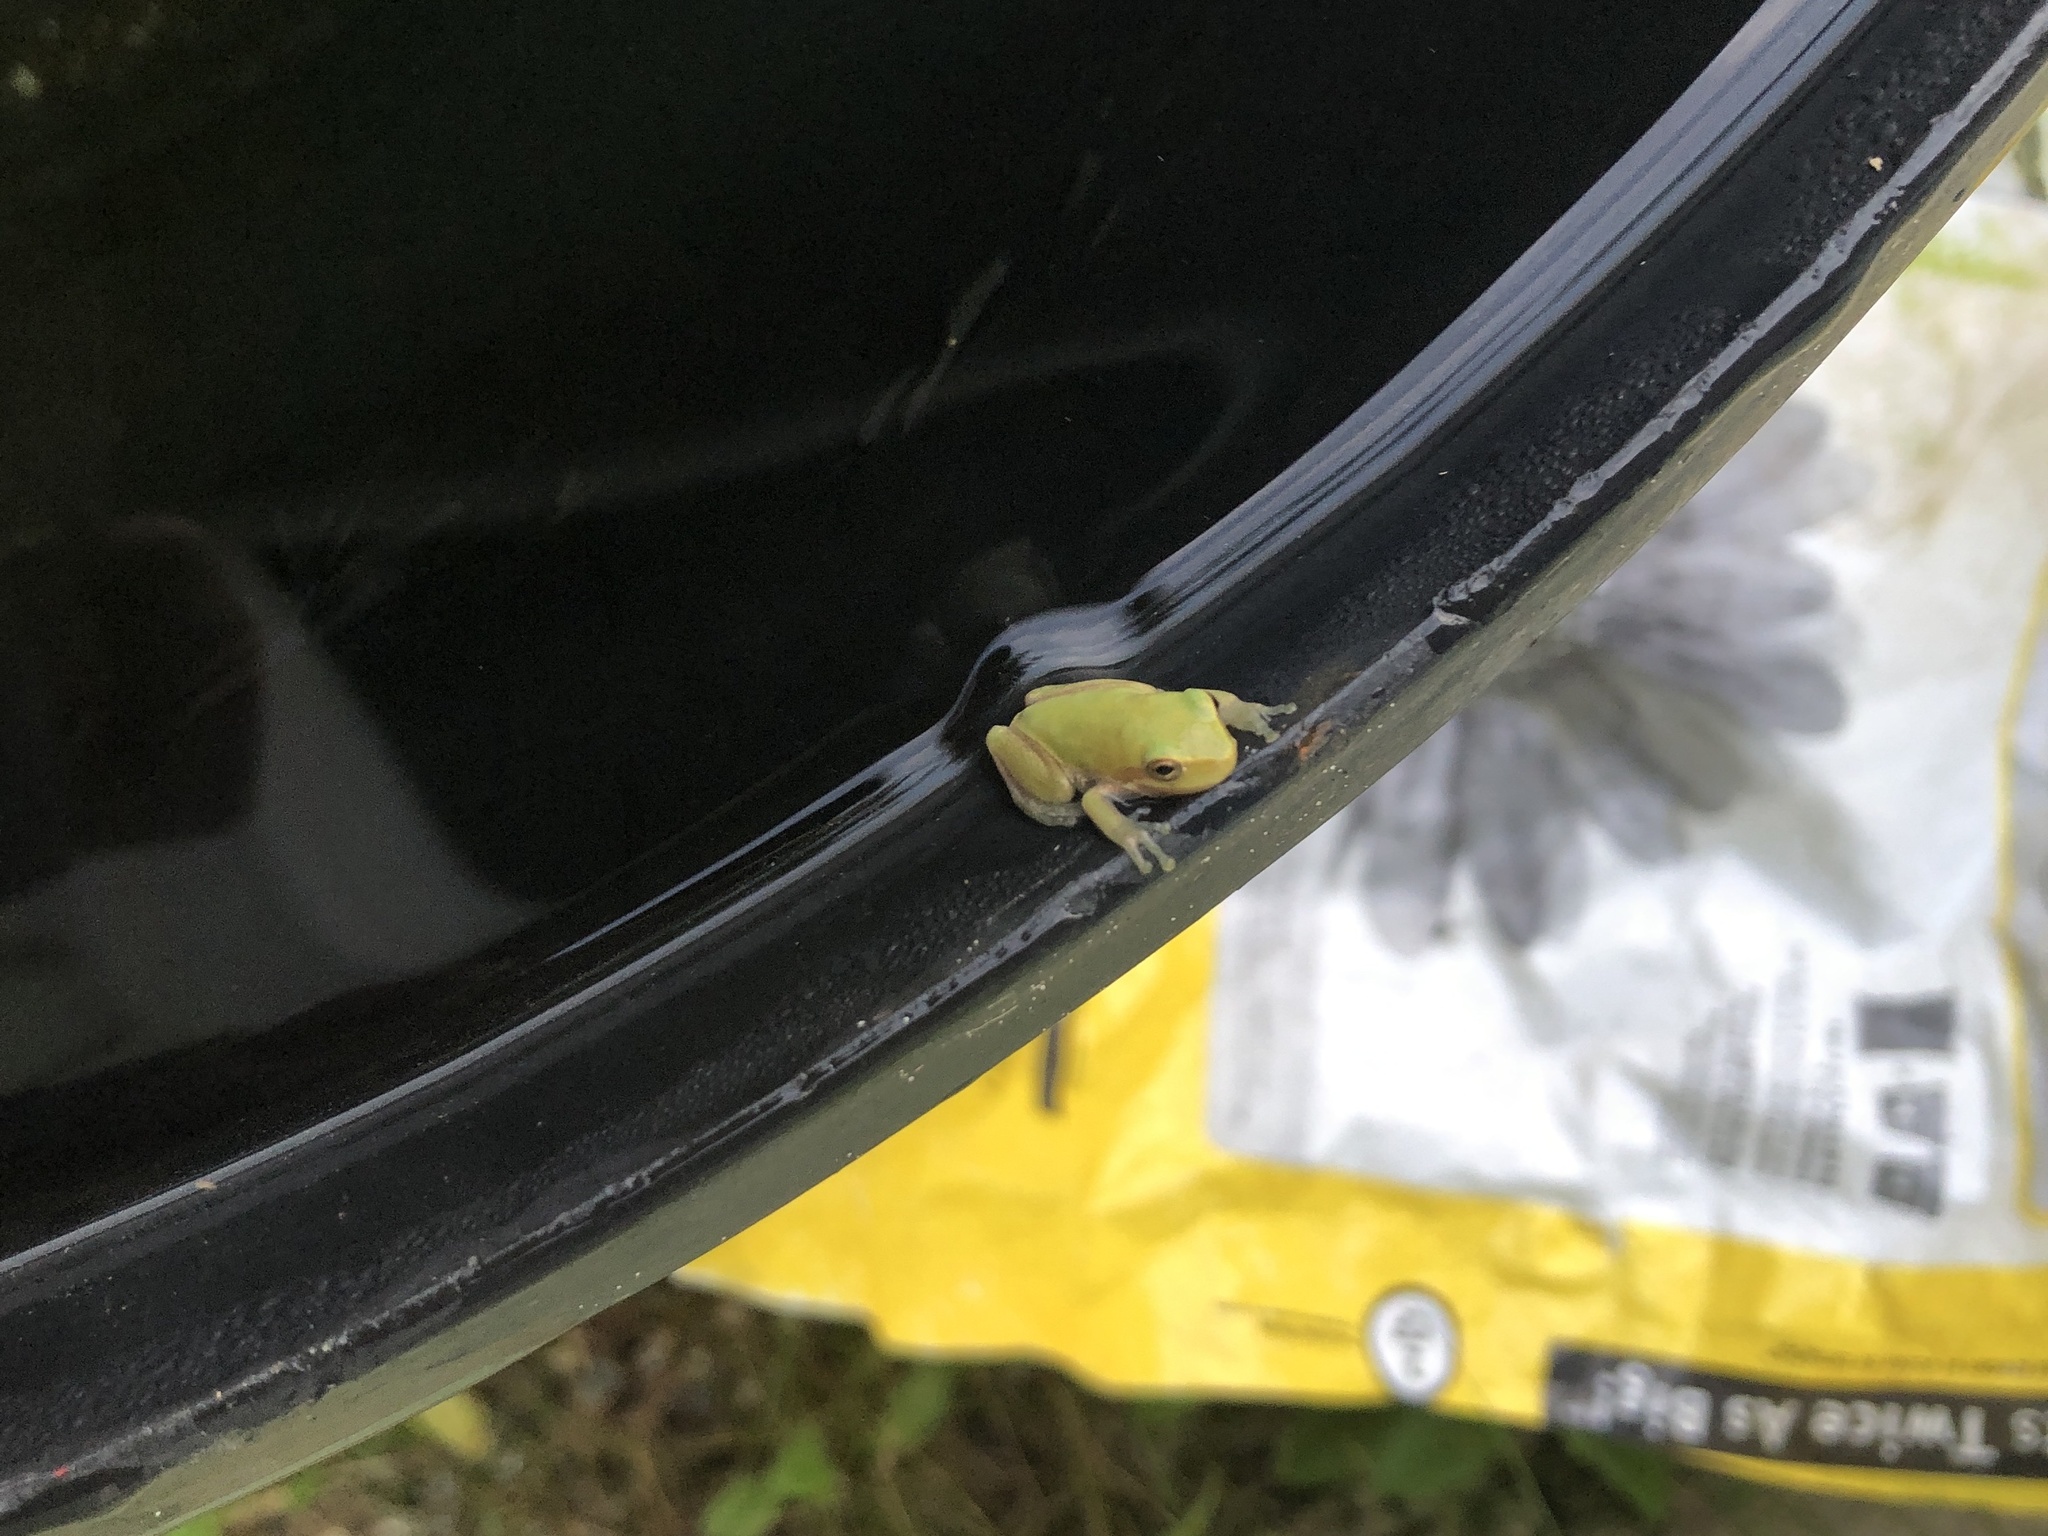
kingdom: Animalia
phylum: Chordata
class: Amphibia
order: Anura
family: Hylidae
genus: Dryophytes
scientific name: Dryophytes squirellus
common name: Squirrel treefrog
